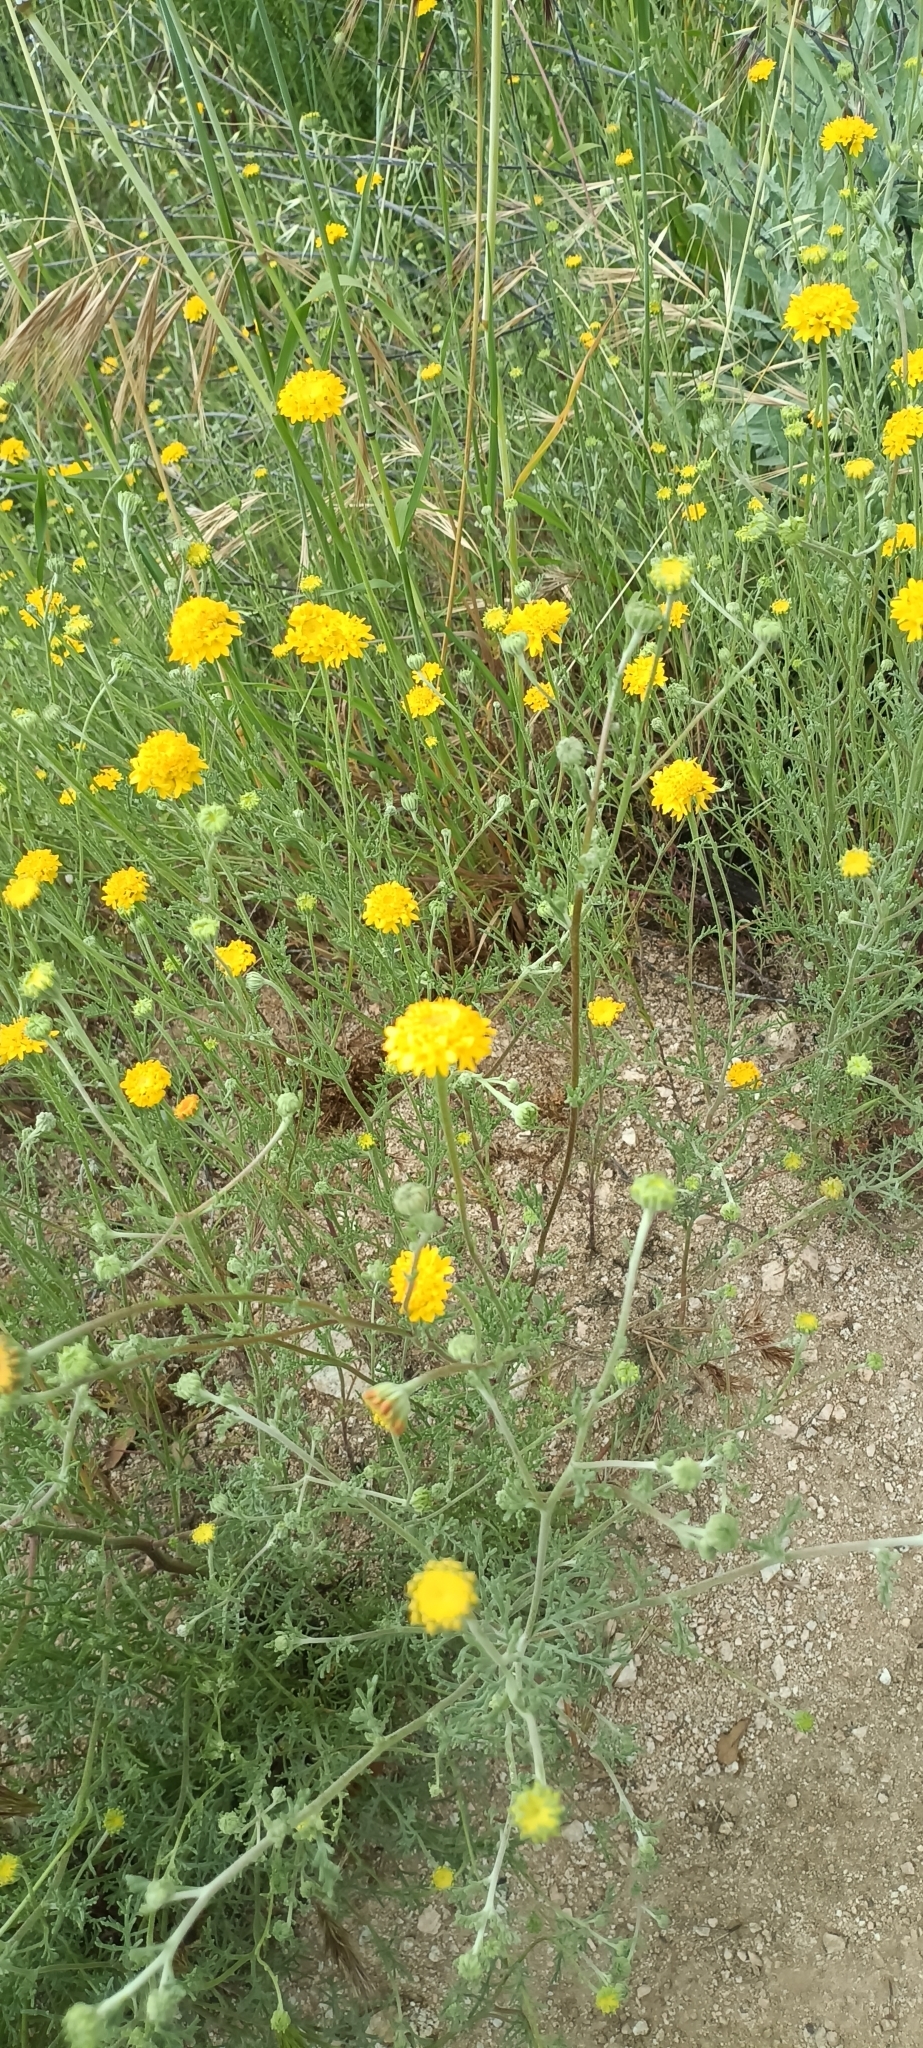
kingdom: Plantae
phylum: Tracheophyta
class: Magnoliopsida
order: Asterales
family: Asteraceae
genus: Chaenactis
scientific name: Chaenactis glabriuscula
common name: Yellow pincushion
